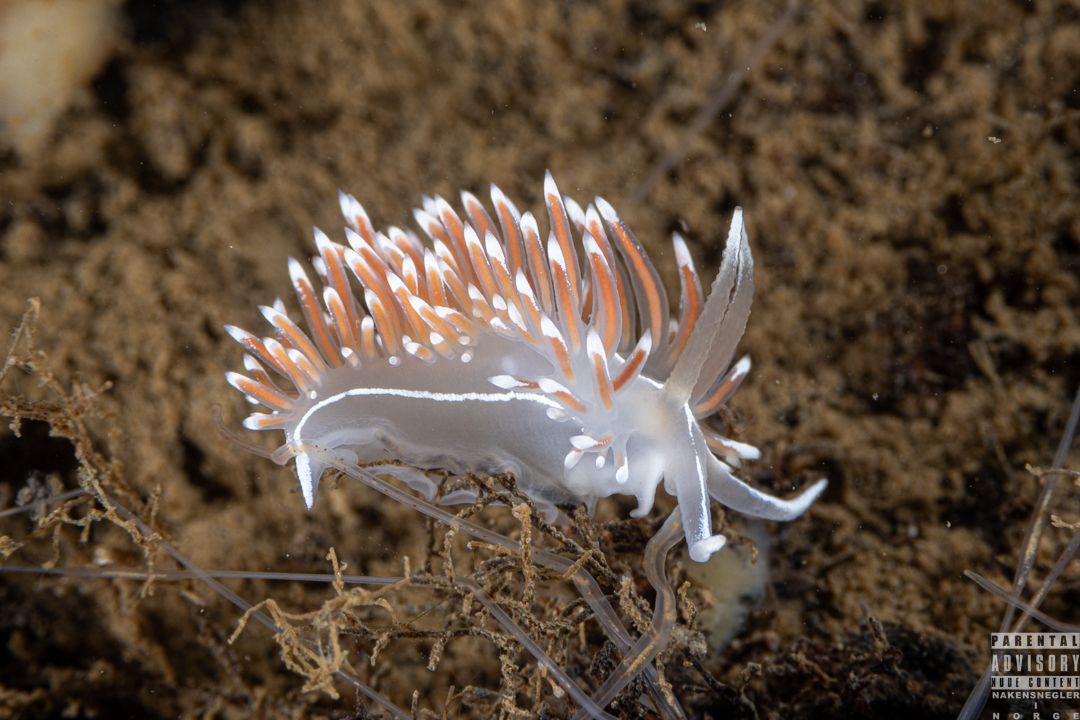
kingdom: Animalia
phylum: Mollusca
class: Gastropoda
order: Nudibranchia
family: Coryphellidae
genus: Coryphella
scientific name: Coryphella lineata
